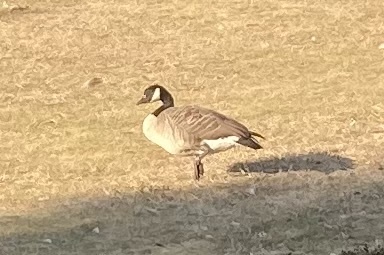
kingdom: Animalia
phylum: Chordata
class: Aves
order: Anseriformes
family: Anatidae
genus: Branta
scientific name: Branta canadensis
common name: Canada goose
